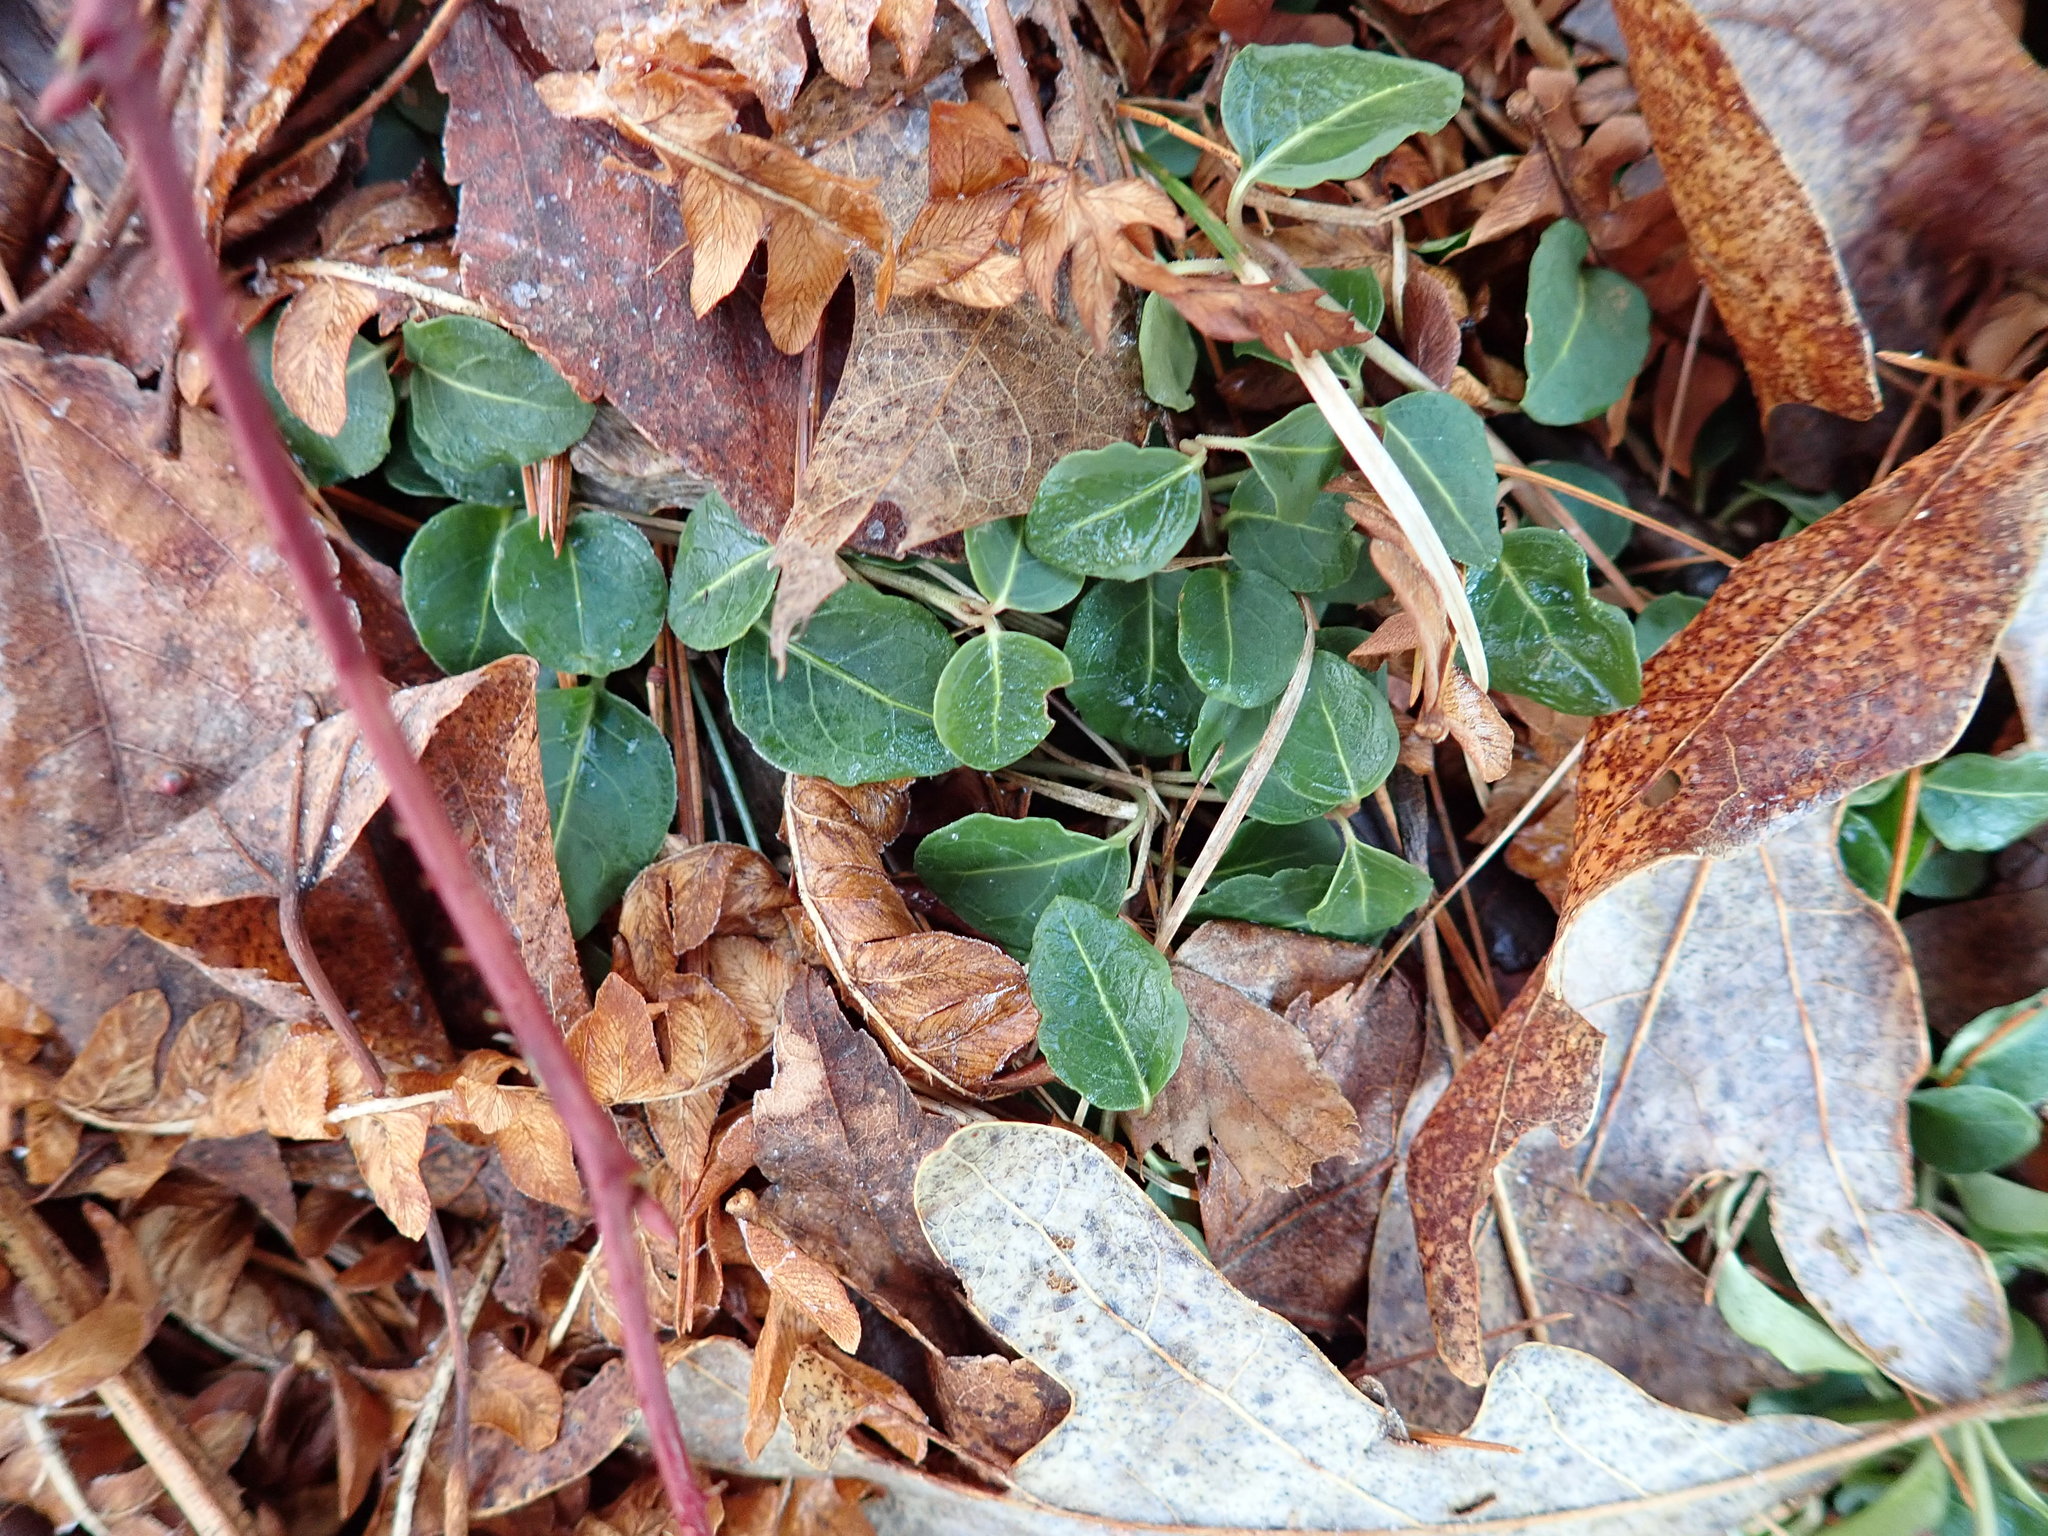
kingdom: Plantae
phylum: Tracheophyta
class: Magnoliopsida
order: Gentianales
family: Rubiaceae
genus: Mitchella
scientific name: Mitchella repens
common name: Partridge-berry
